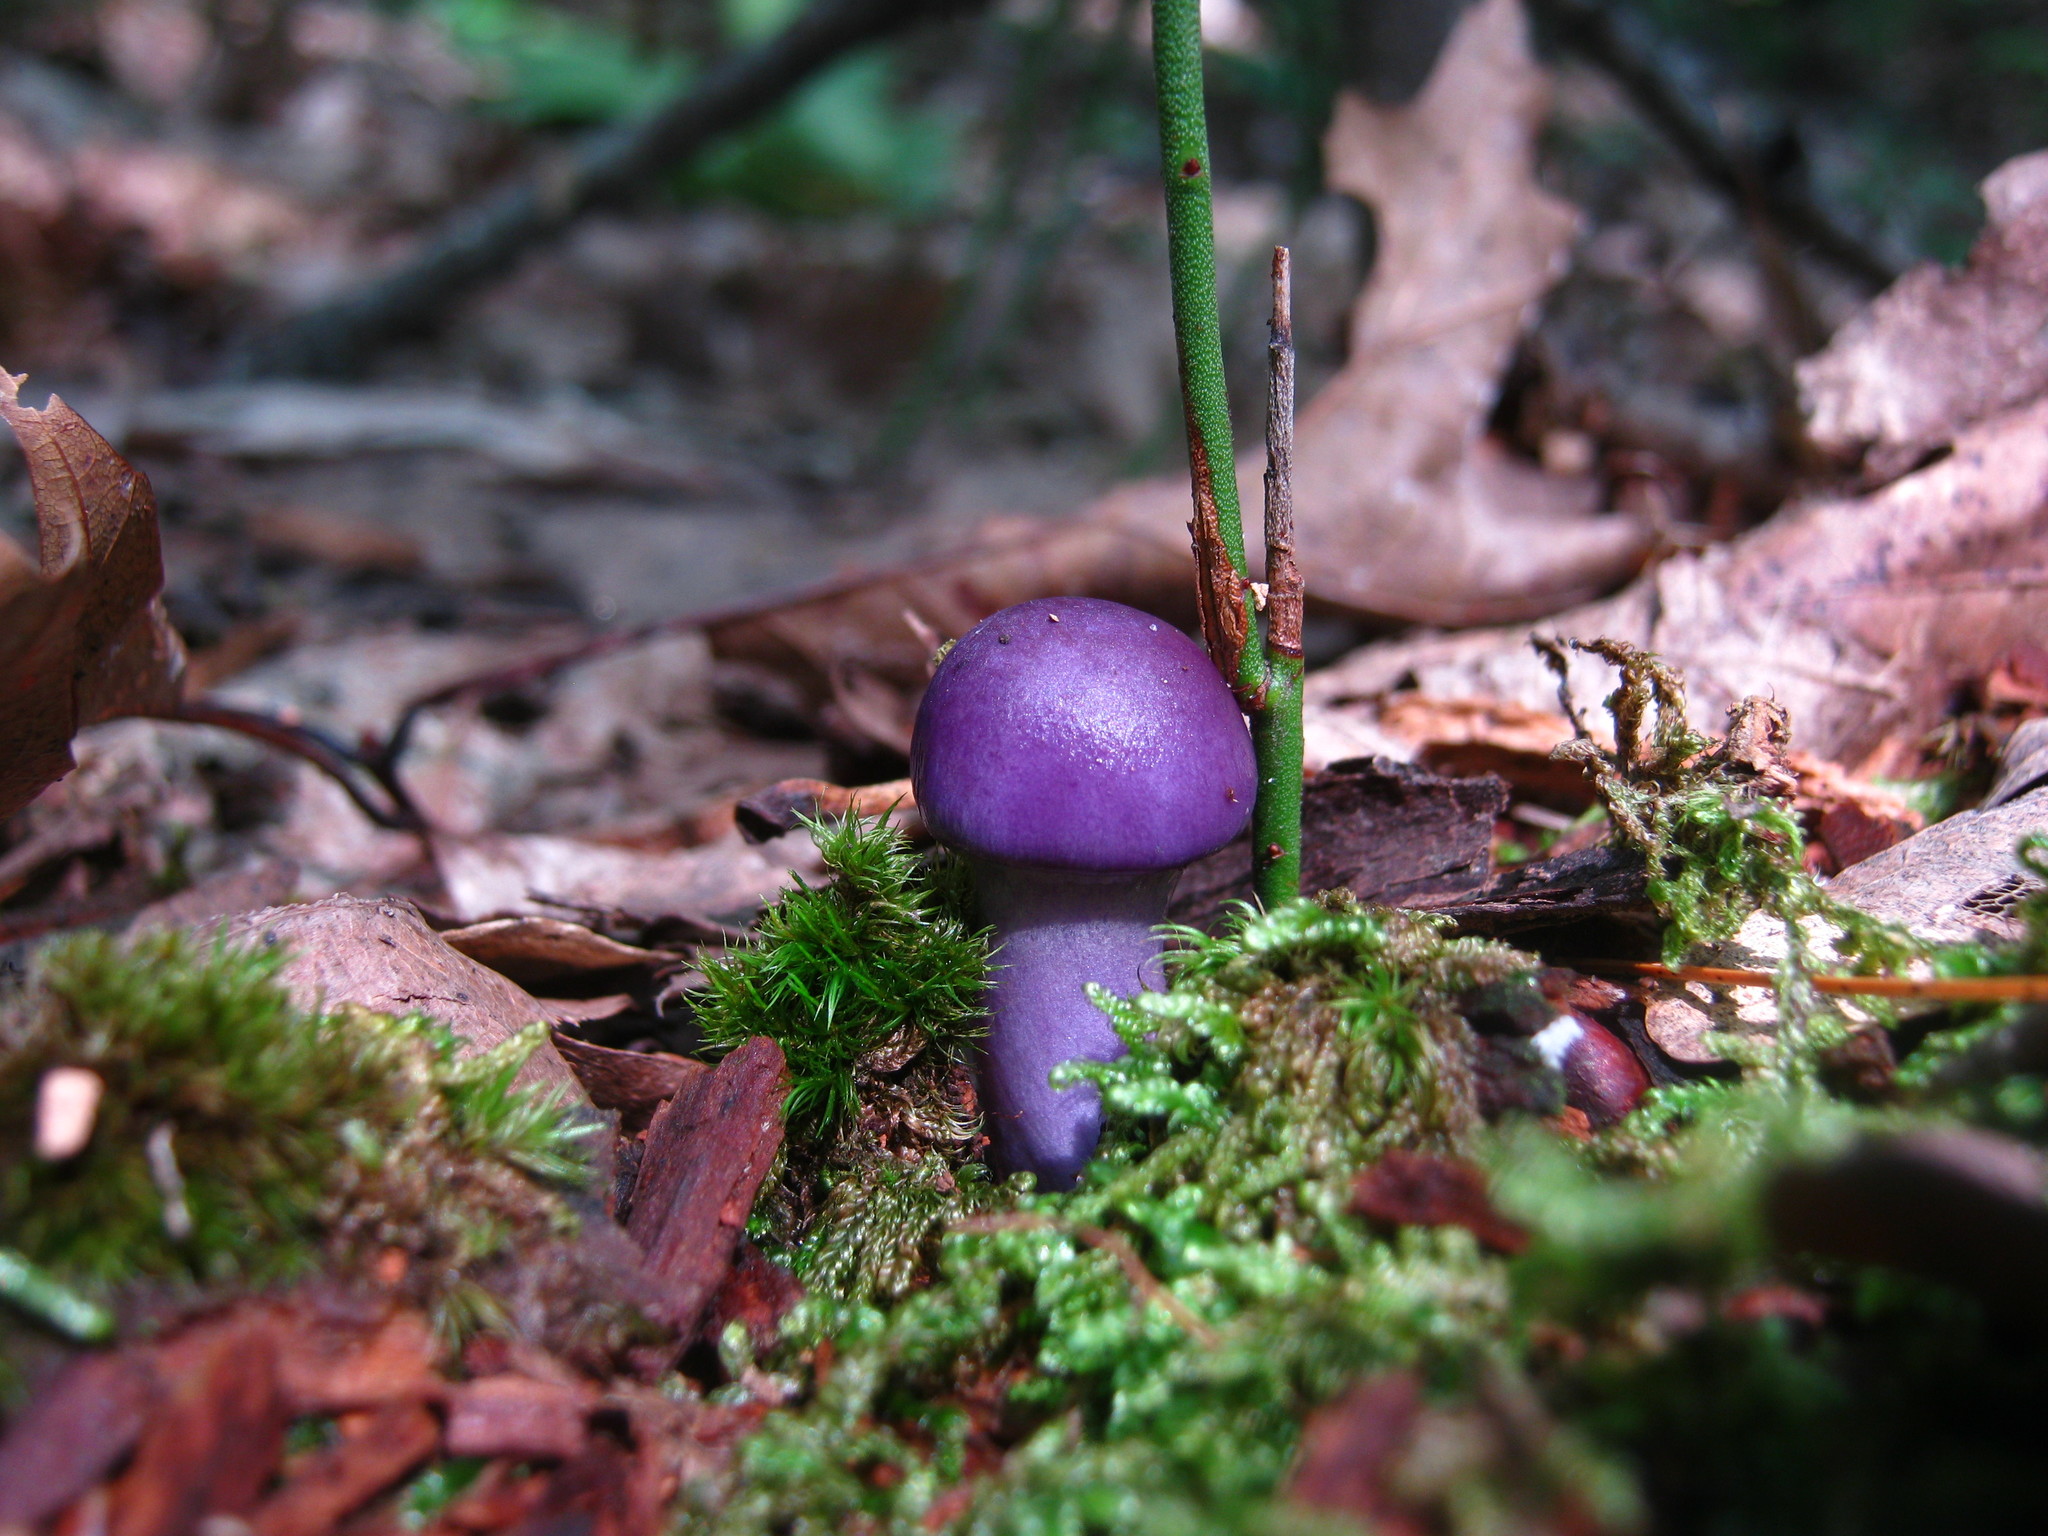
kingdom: Fungi
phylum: Basidiomycota
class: Agaricomycetes
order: Agaricales
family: Cortinariaceae
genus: Cortinarius
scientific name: Cortinarius iodes
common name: Viscid violet cort
